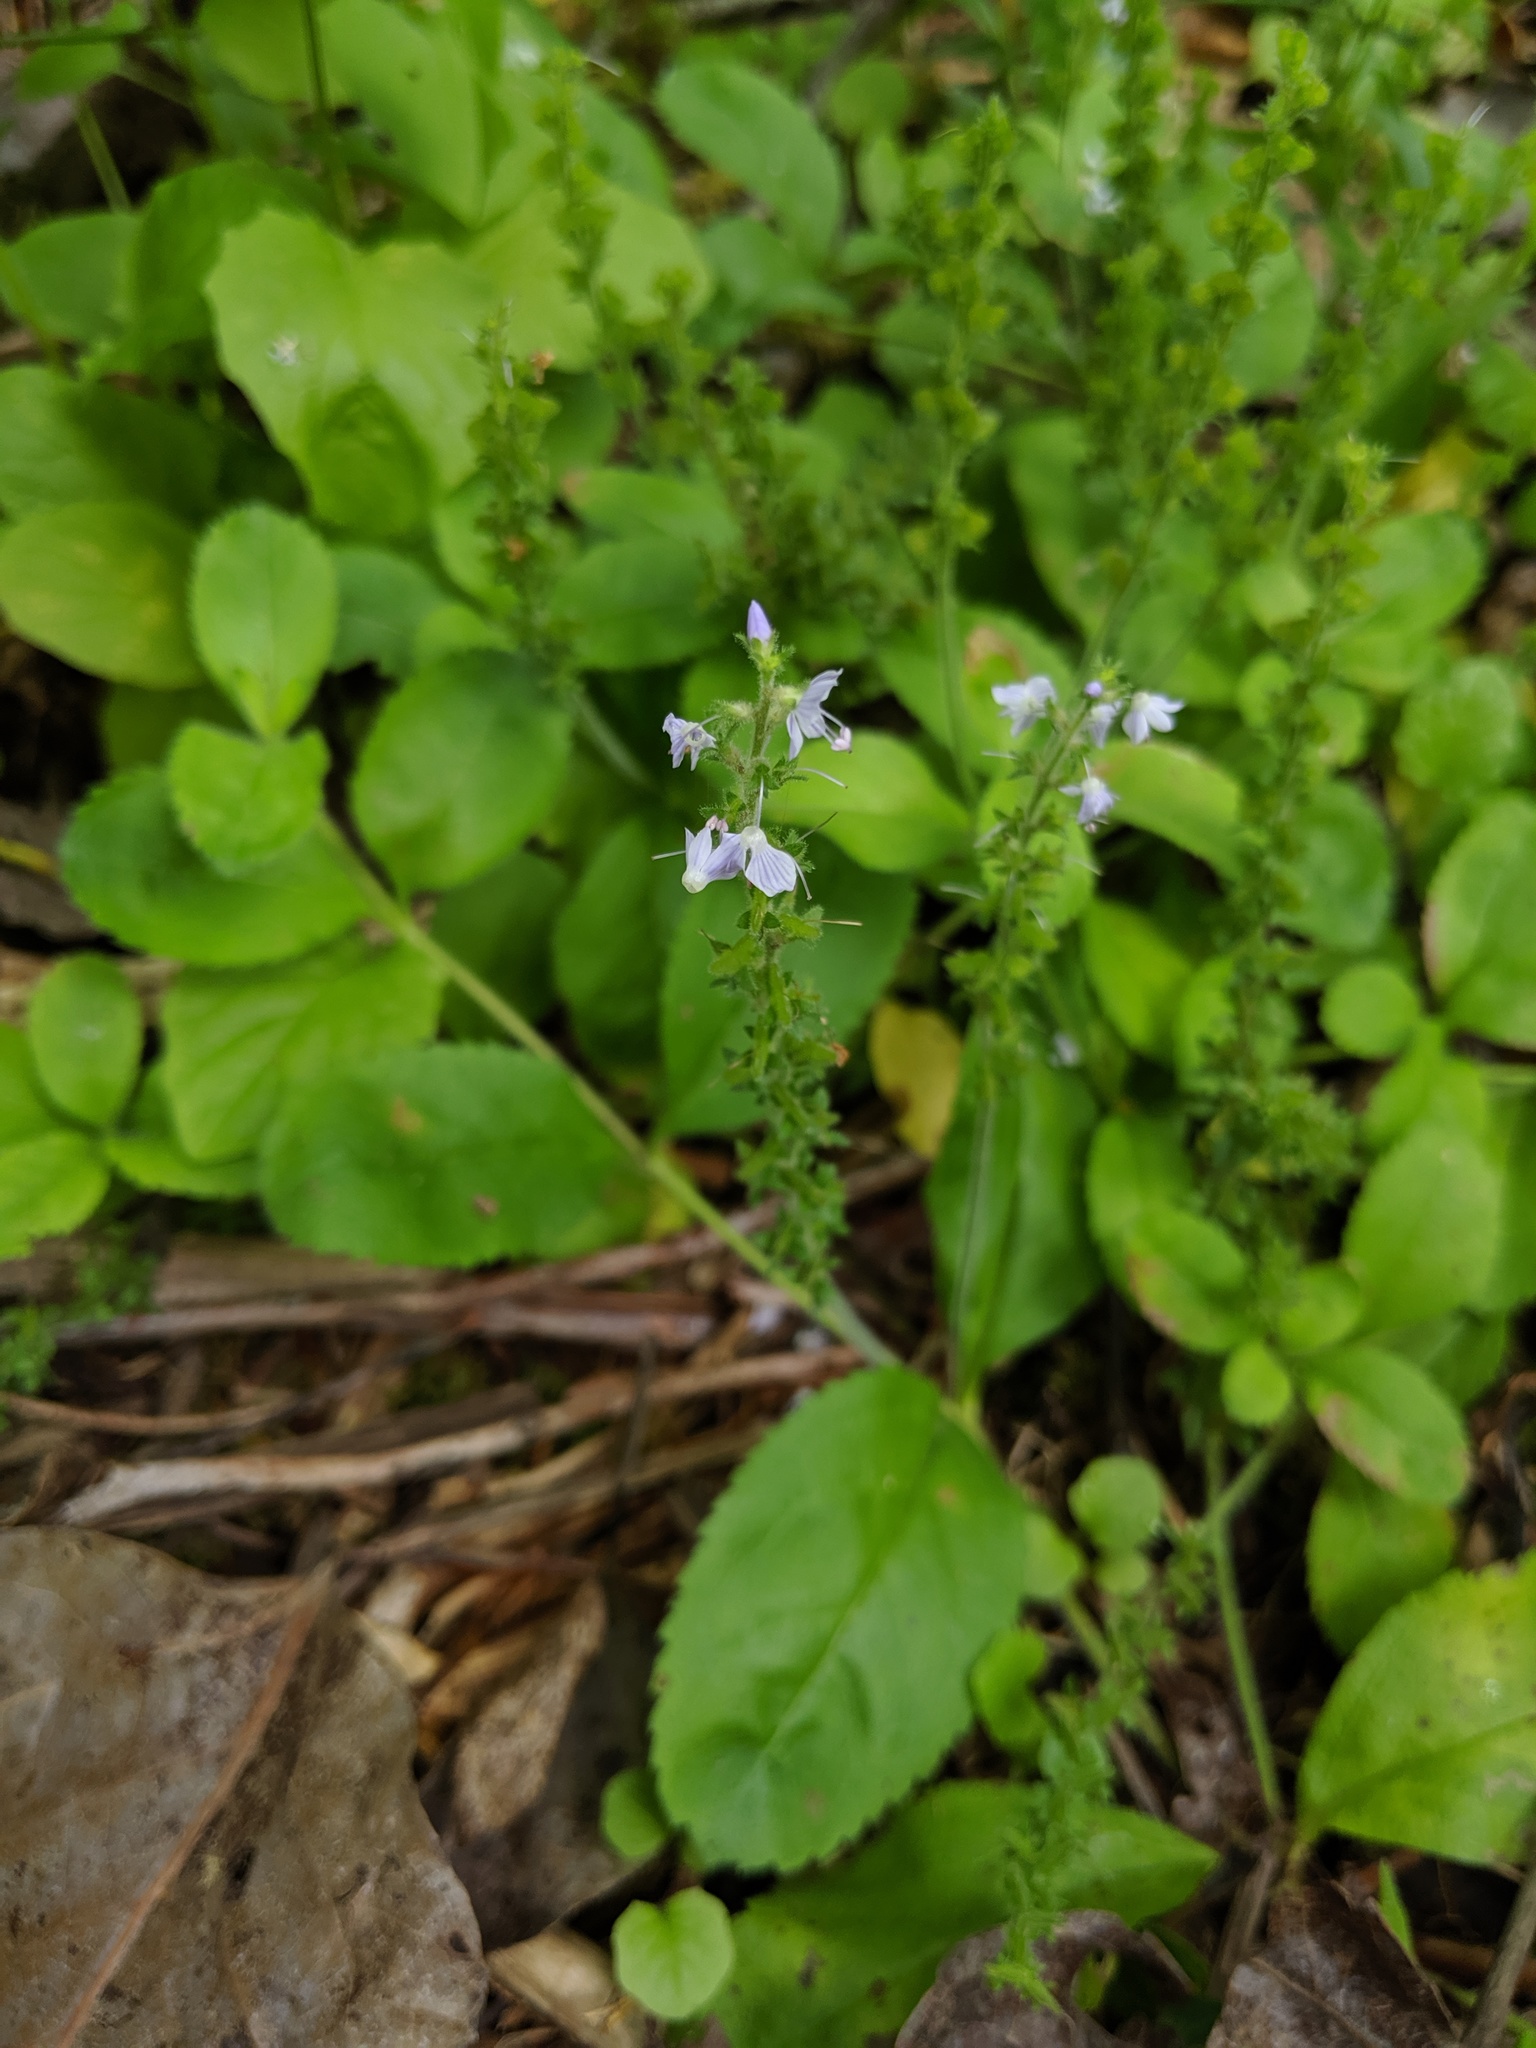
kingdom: Plantae
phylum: Tracheophyta
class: Magnoliopsida
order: Lamiales
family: Plantaginaceae
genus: Veronica
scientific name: Veronica officinalis
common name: Common speedwell
